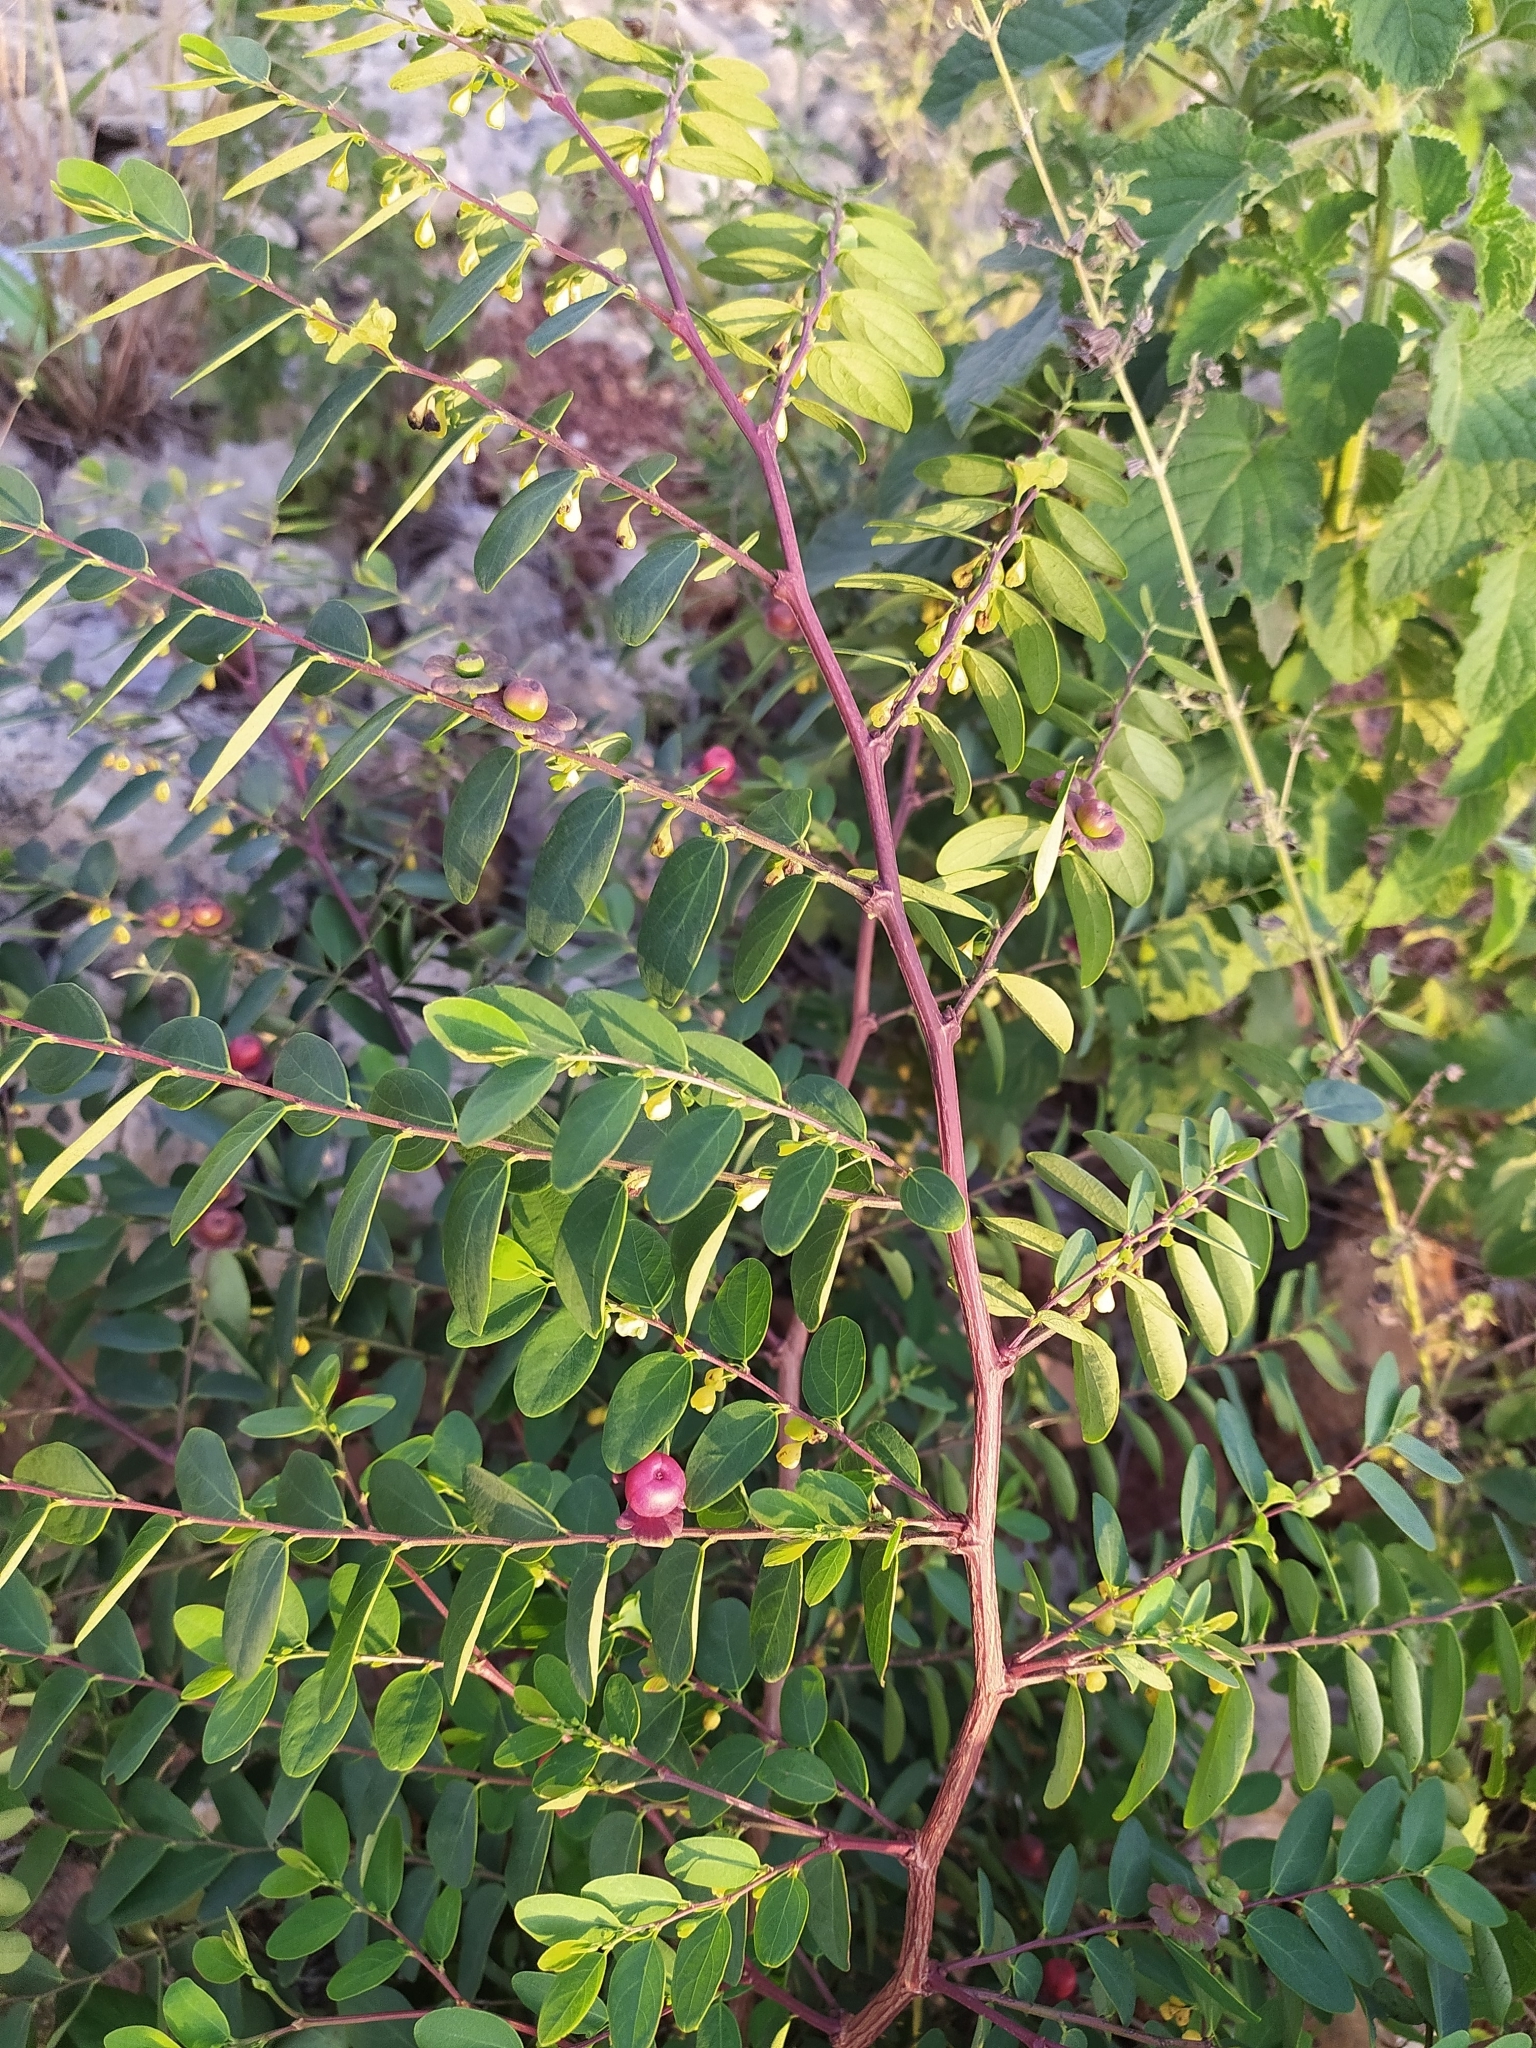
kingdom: Plantae
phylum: Tracheophyta
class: Magnoliopsida
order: Malpighiales
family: Phyllanthaceae
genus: Breynia
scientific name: Breynia retusa
